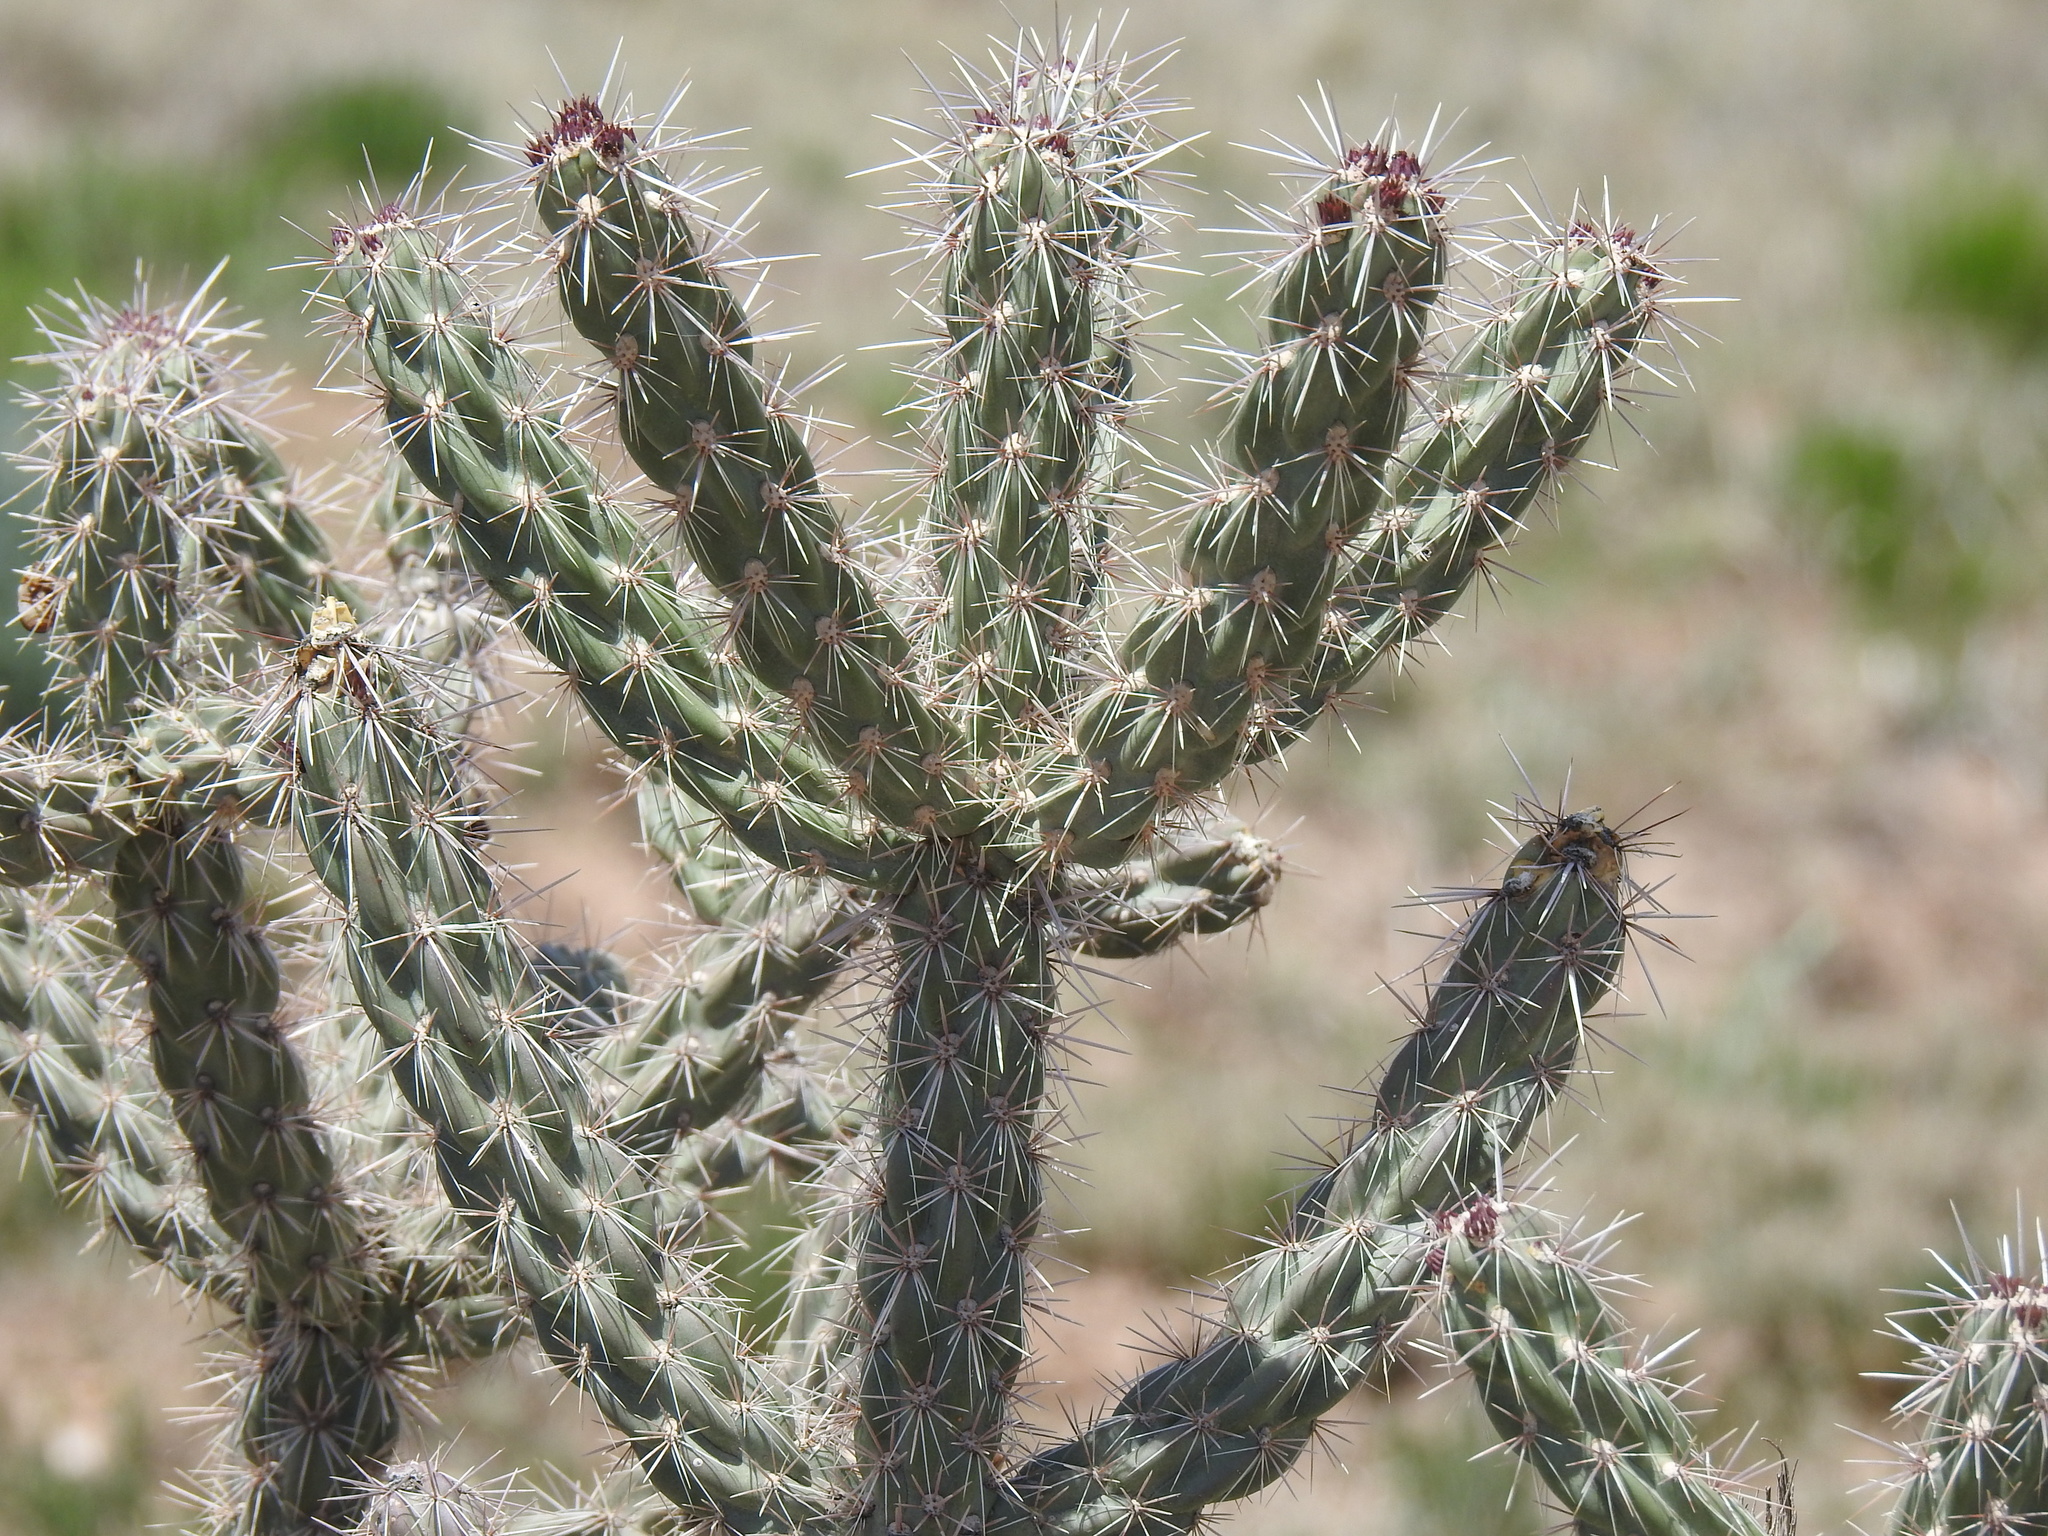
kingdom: Plantae
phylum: Tracheophyta
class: Magnoliopsida
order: Caryophyllales
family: Cactaceae
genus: Cylindropuntia
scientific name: Cylindropuntia imbricata
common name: Candelabrum cactus
